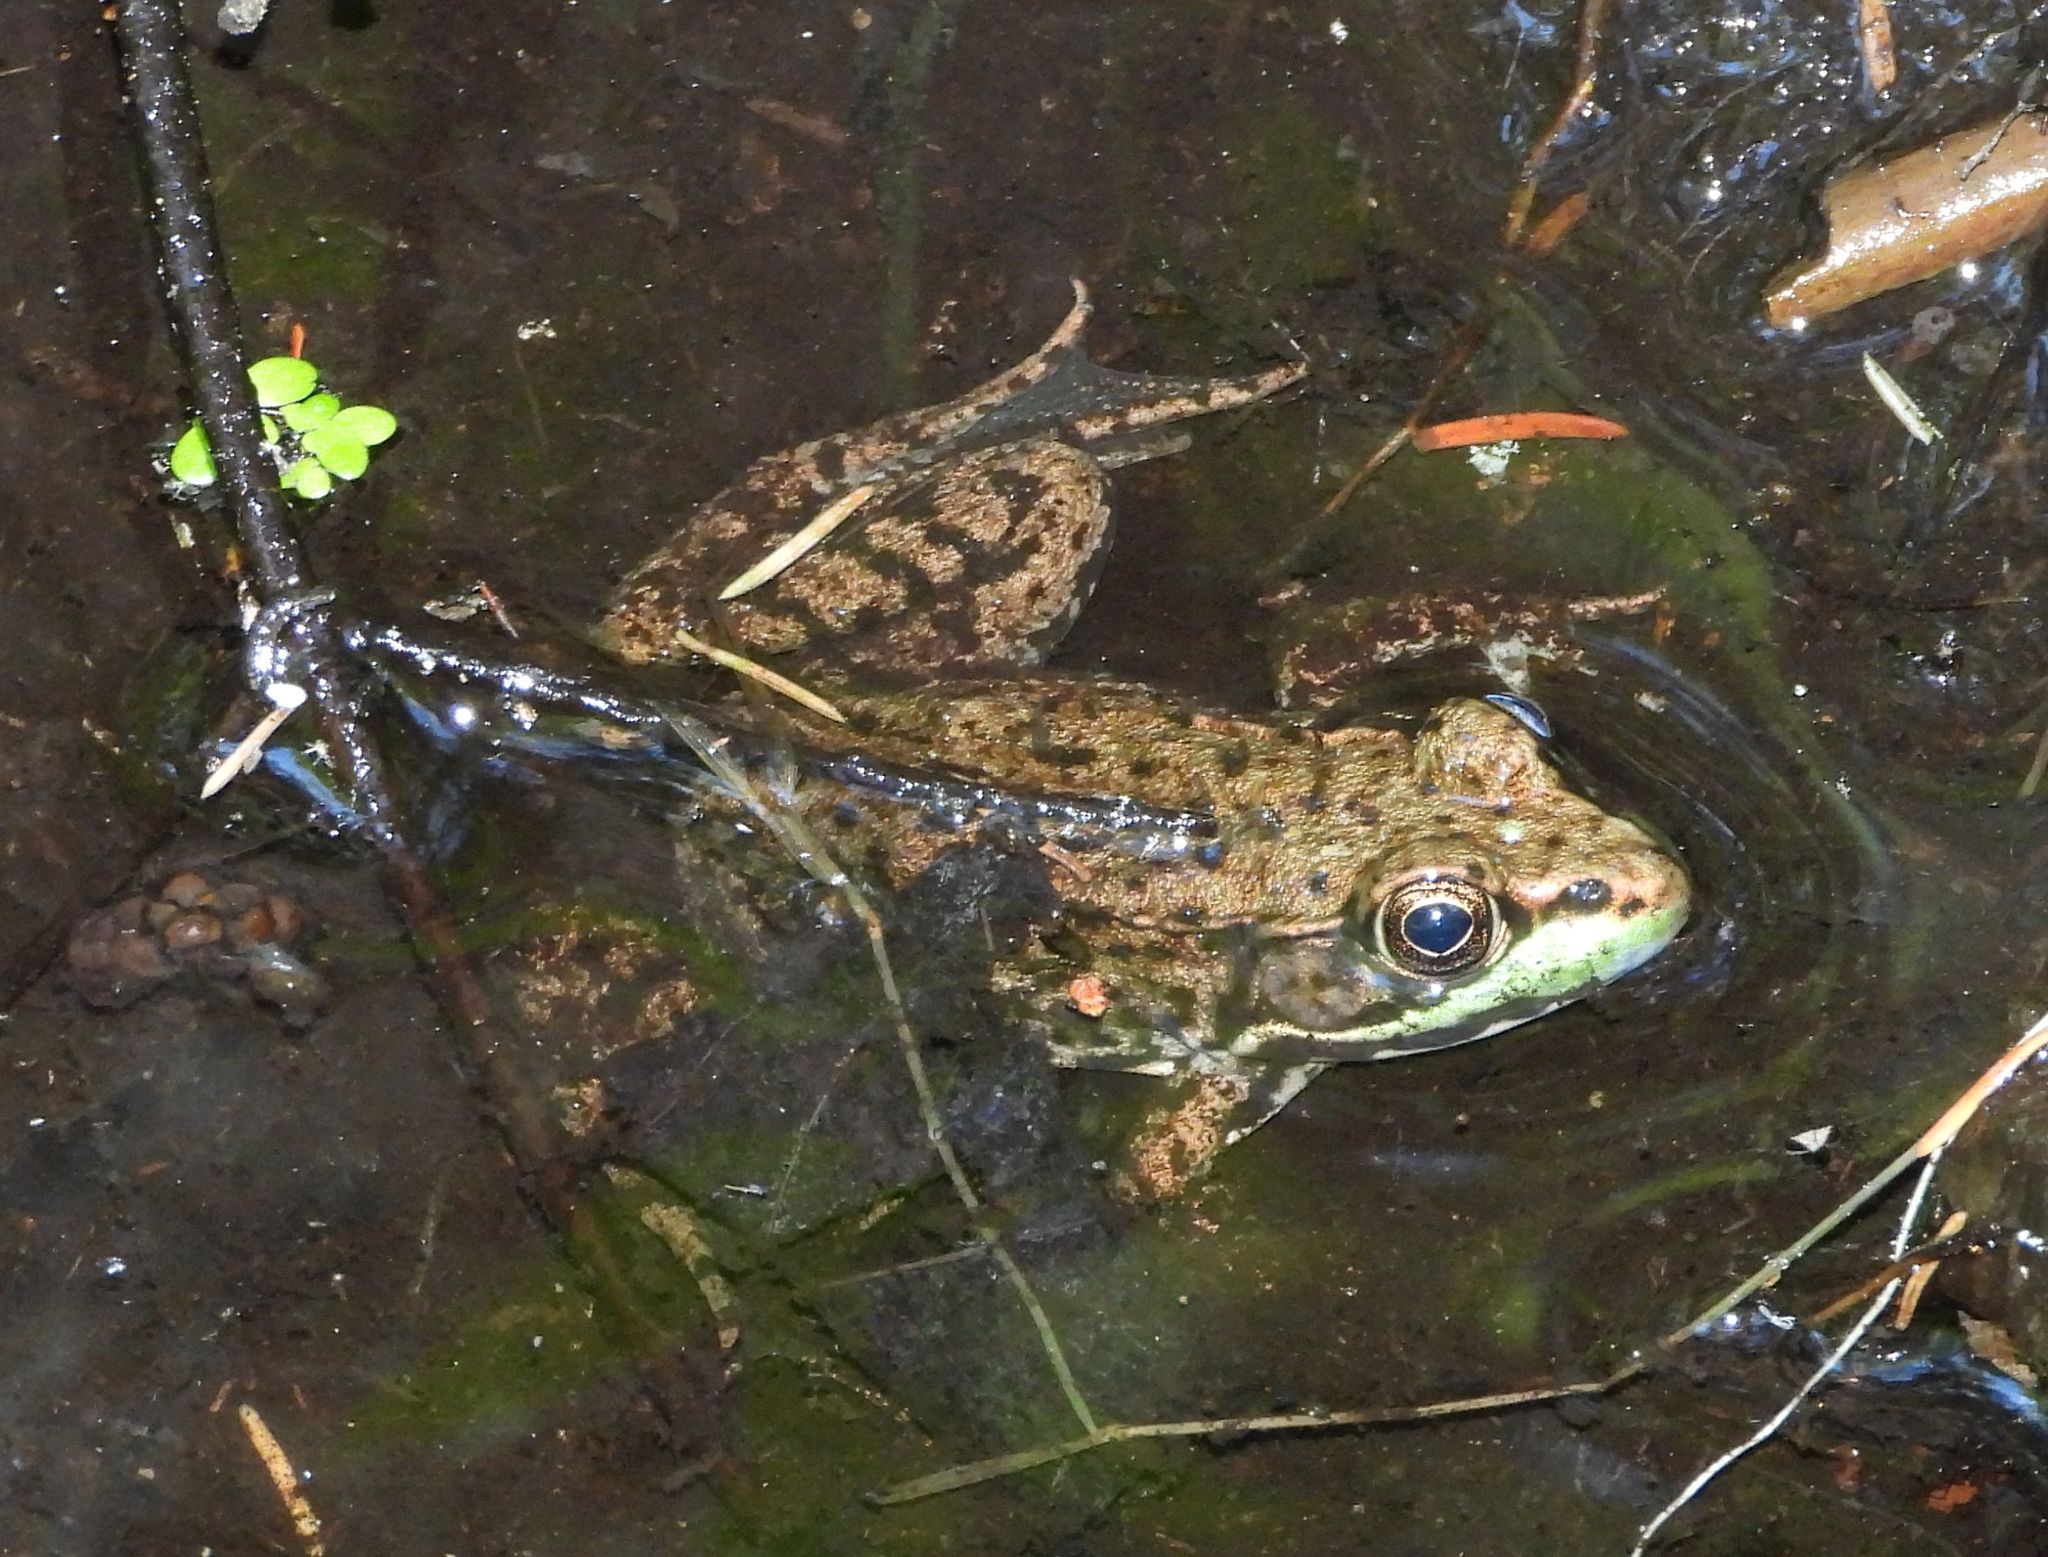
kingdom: Animalia
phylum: Chordata
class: Amphibia
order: Anura
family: Ranidae
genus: Lithobates
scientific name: Lithobates clamitans
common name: Green frog
